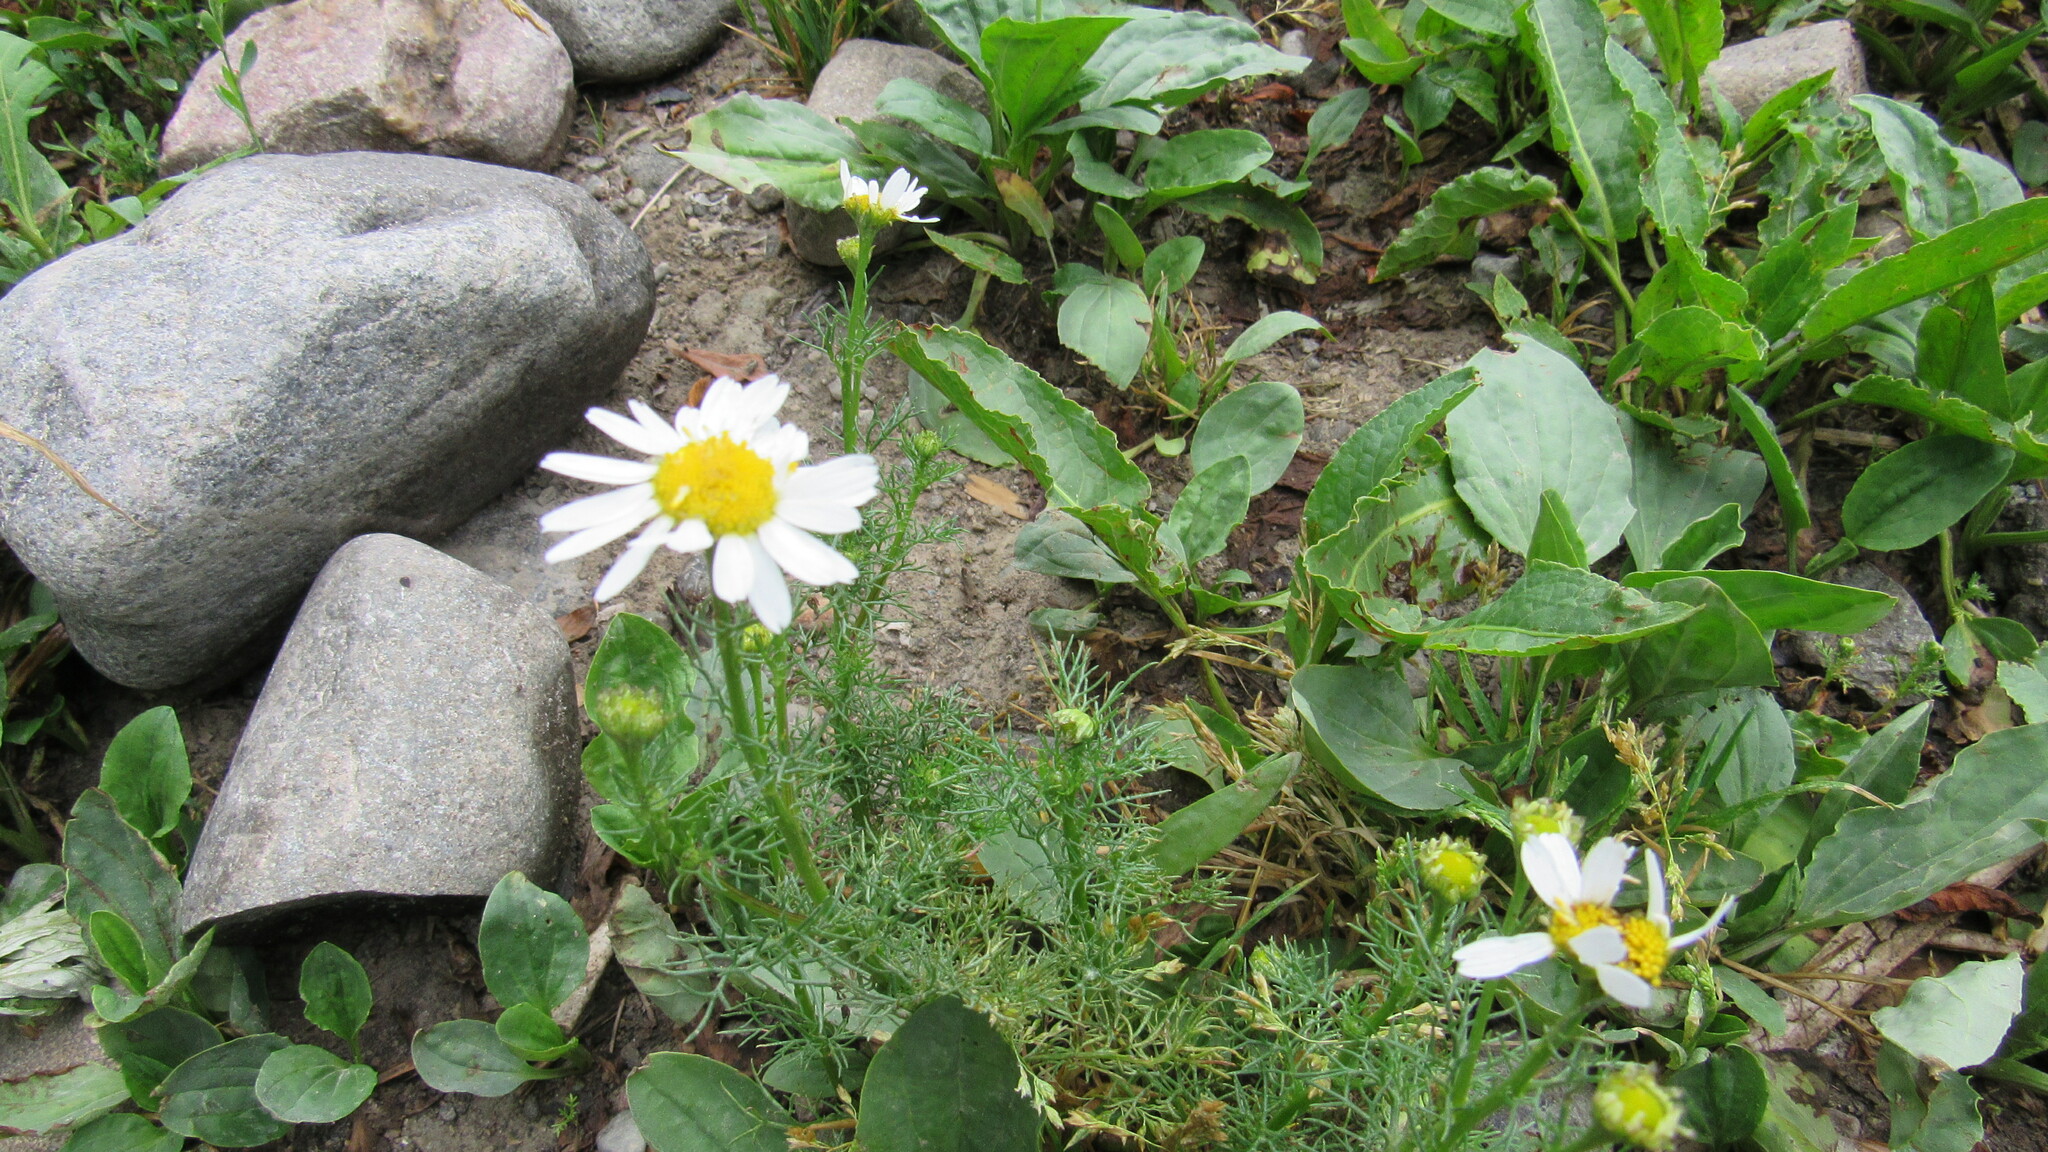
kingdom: Plantae
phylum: Tracheophyta
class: Magnoliopsida
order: Asterales
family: Asteraceae
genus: Tripleurospermum
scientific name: Tripleurospermum inodorum
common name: Scentless mayweed
